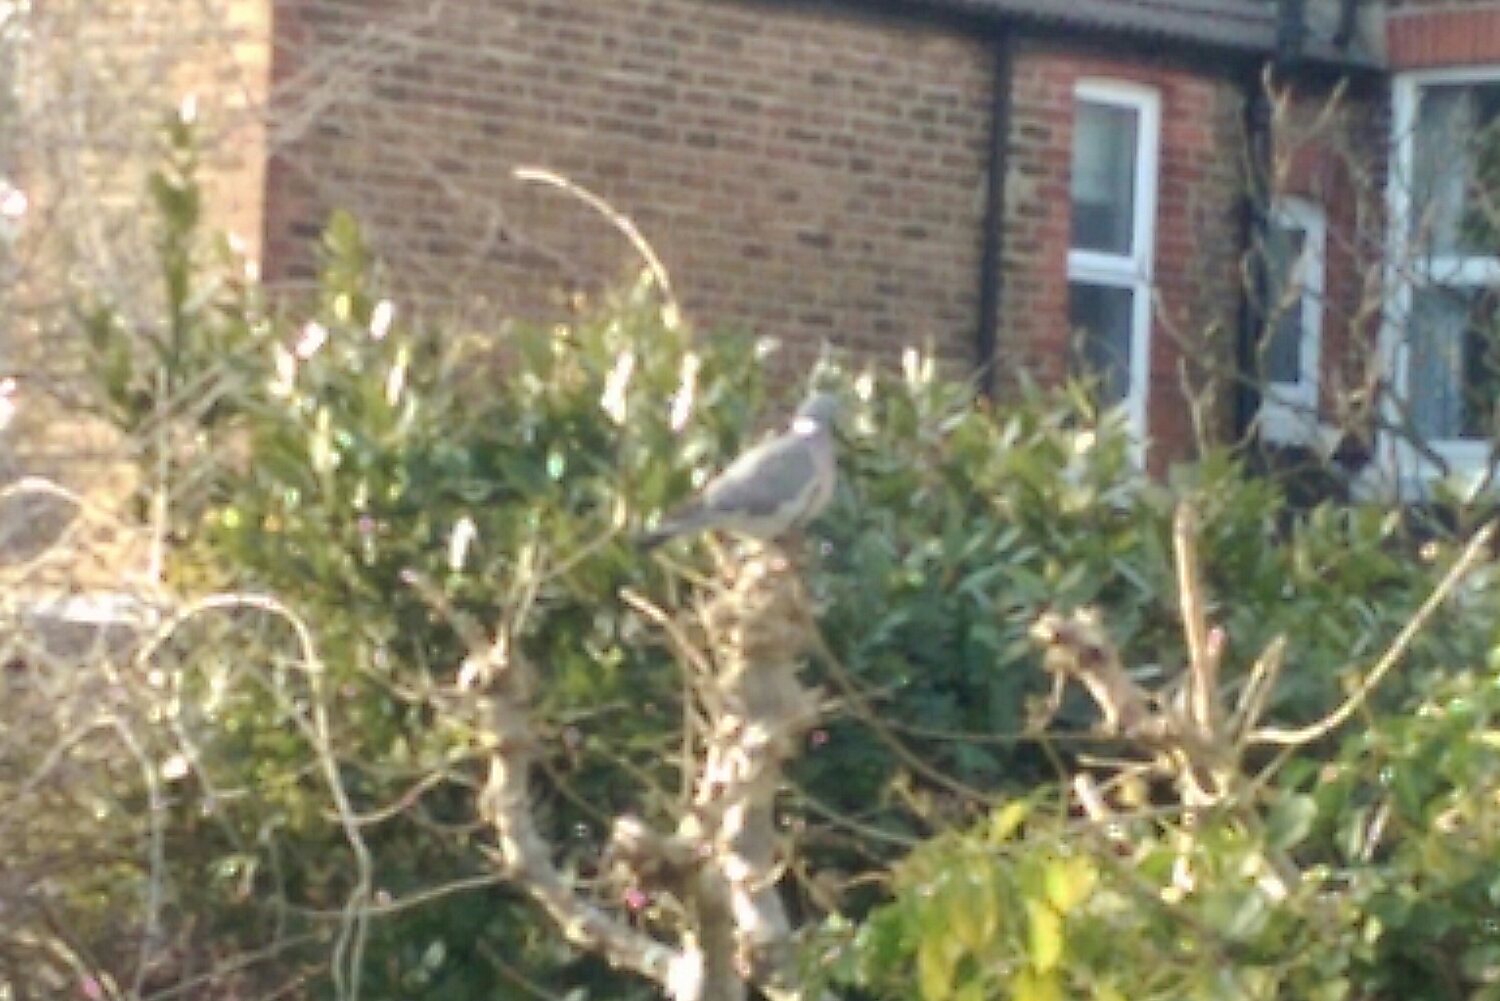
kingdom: Animalia
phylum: Chordata
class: Aves
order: Columbiformes
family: Columbidae
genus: Columba
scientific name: Columba palumbus
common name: Common wood pigeon
